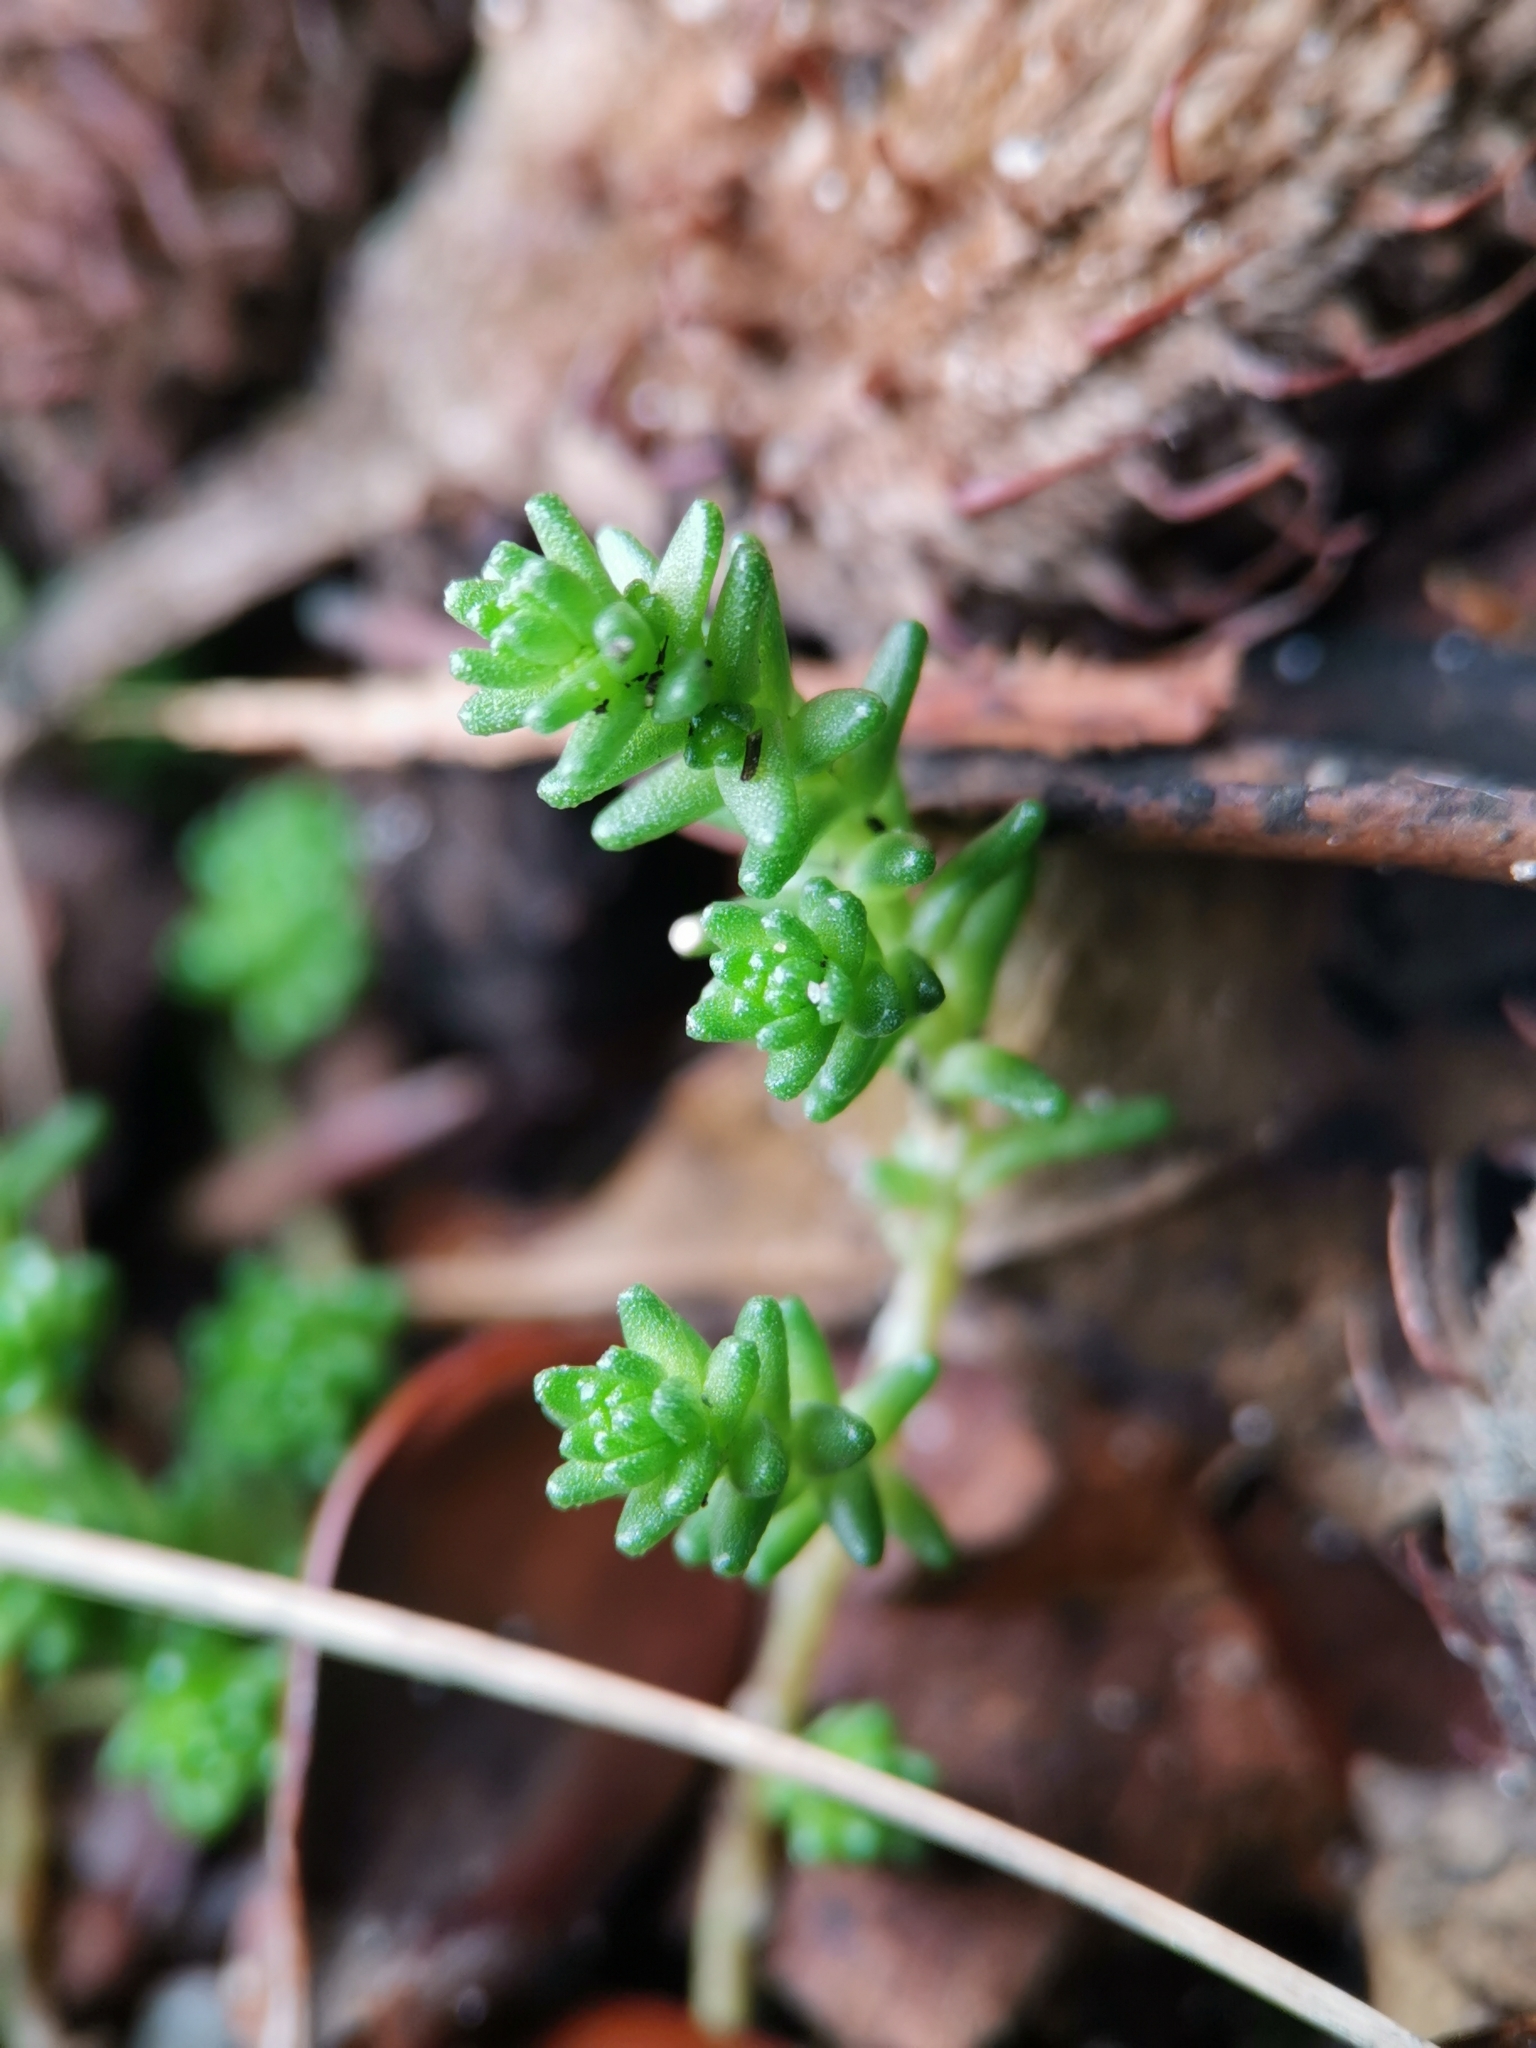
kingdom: Plantae
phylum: Tracheophyta
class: Magnoliopsida
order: Saxifragales
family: Crassulaceae
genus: Sedum
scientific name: Sedum acre
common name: Biting stonecrop
